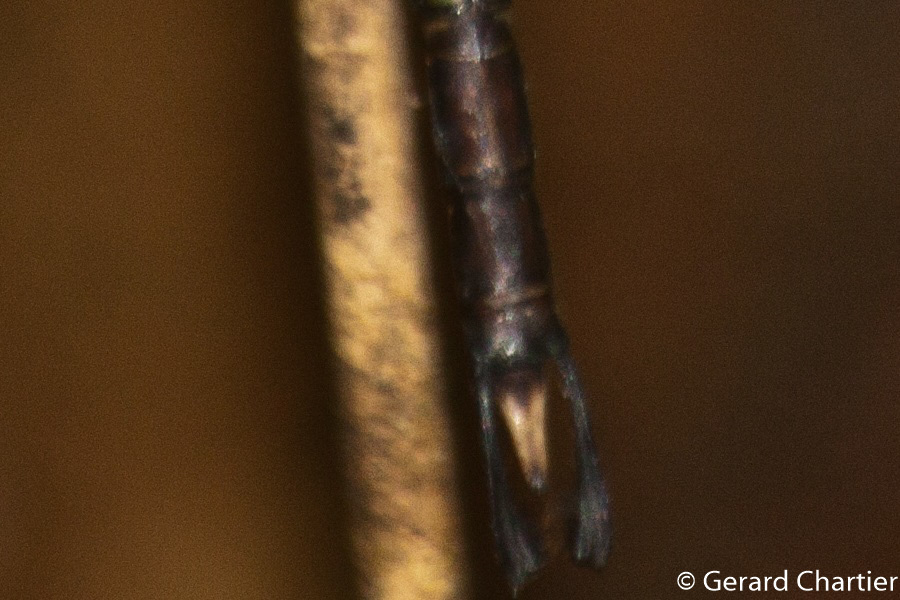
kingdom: Animalia
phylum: Arthropoda
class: Insecta
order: Odonata
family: Aeshnidae
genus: Gynacantha
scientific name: Gynacantha phaeomeria
